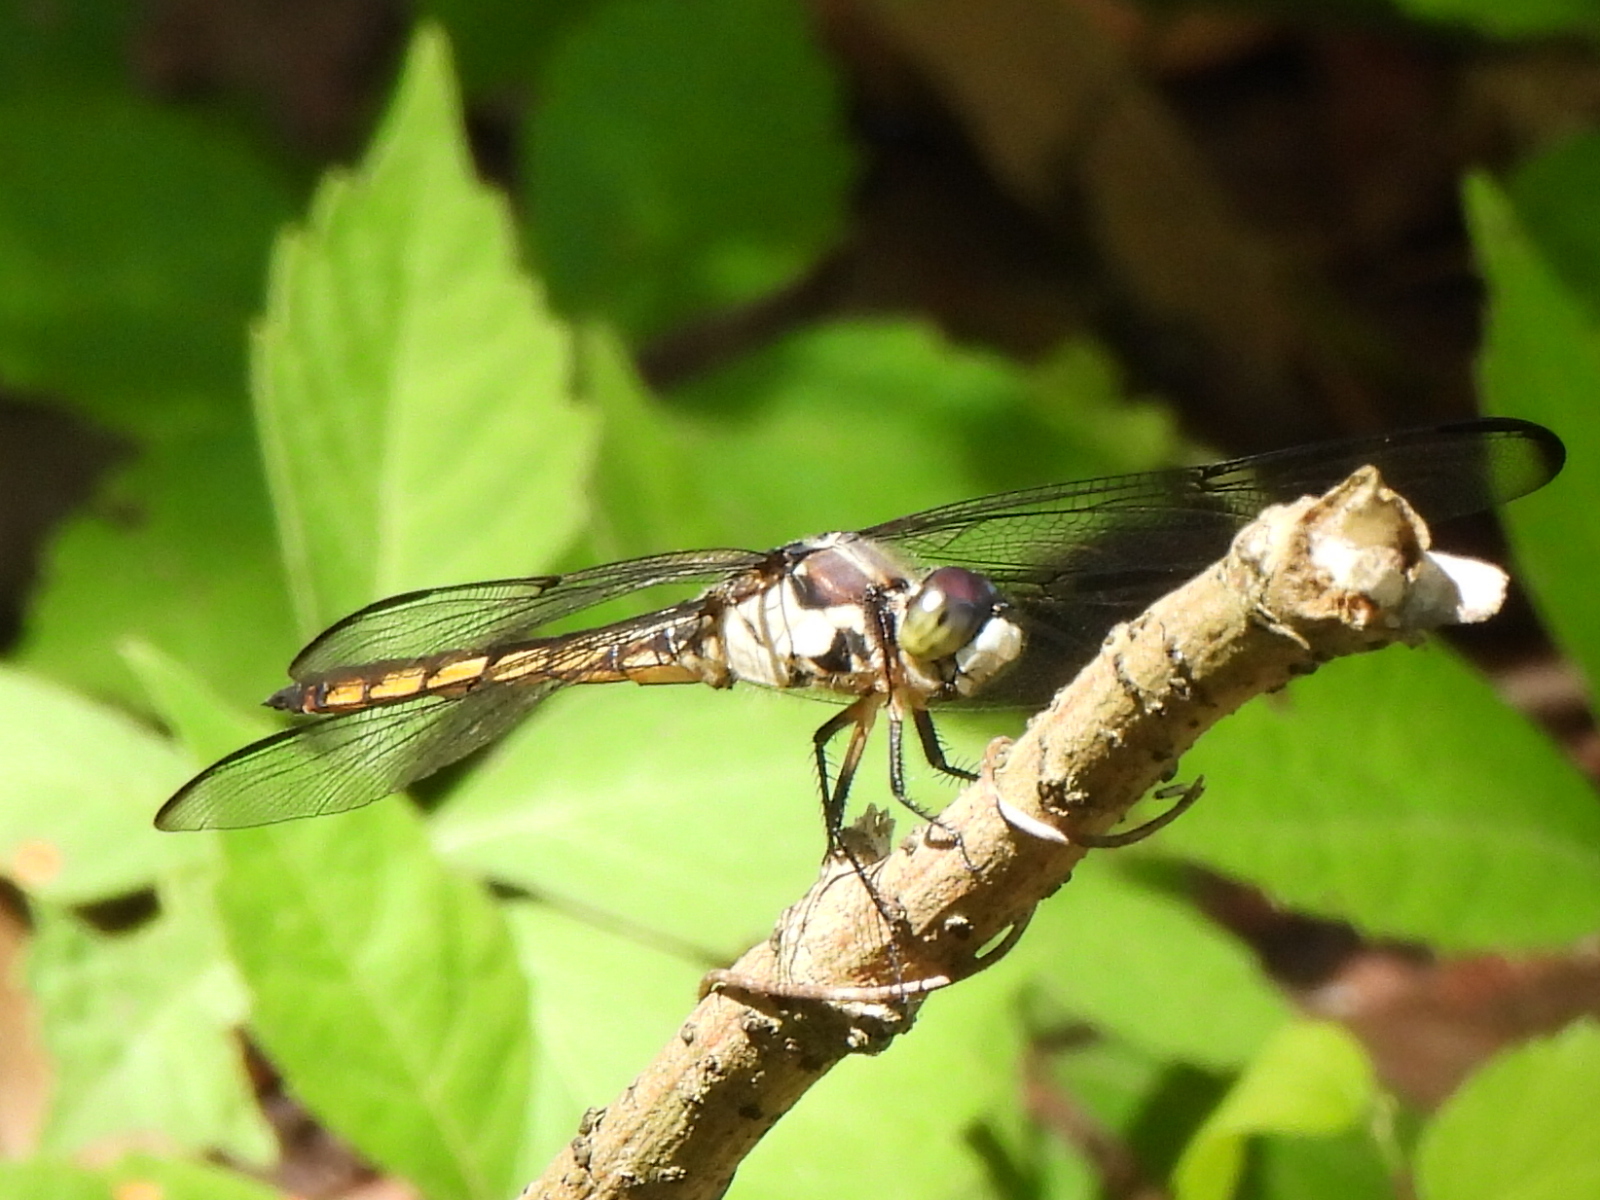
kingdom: Animalia
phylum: Arthropoda
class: Insecta
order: Odonata
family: Libellulidae
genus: Libellula
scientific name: Libellula vibrans
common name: Great blue skimmer
